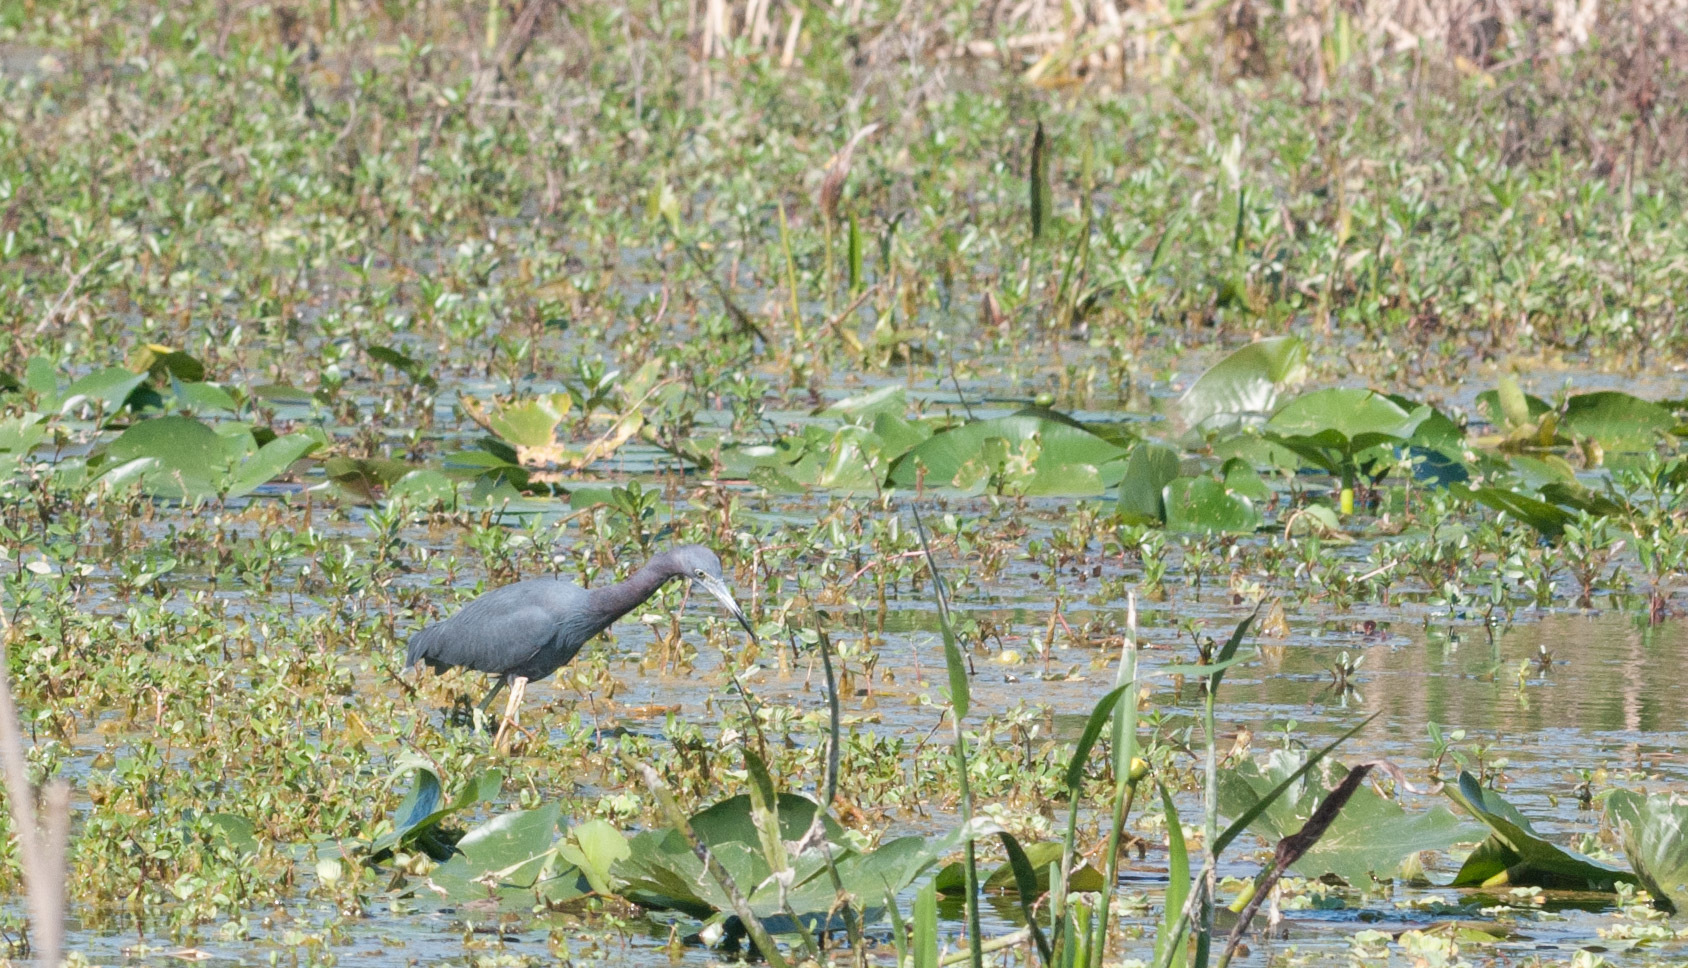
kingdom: Animalia
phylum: Chordata
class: Aves
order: Pelecaniformes
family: Ardeidae
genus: Egretta
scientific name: Egretta caerulea
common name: Little blue heron
